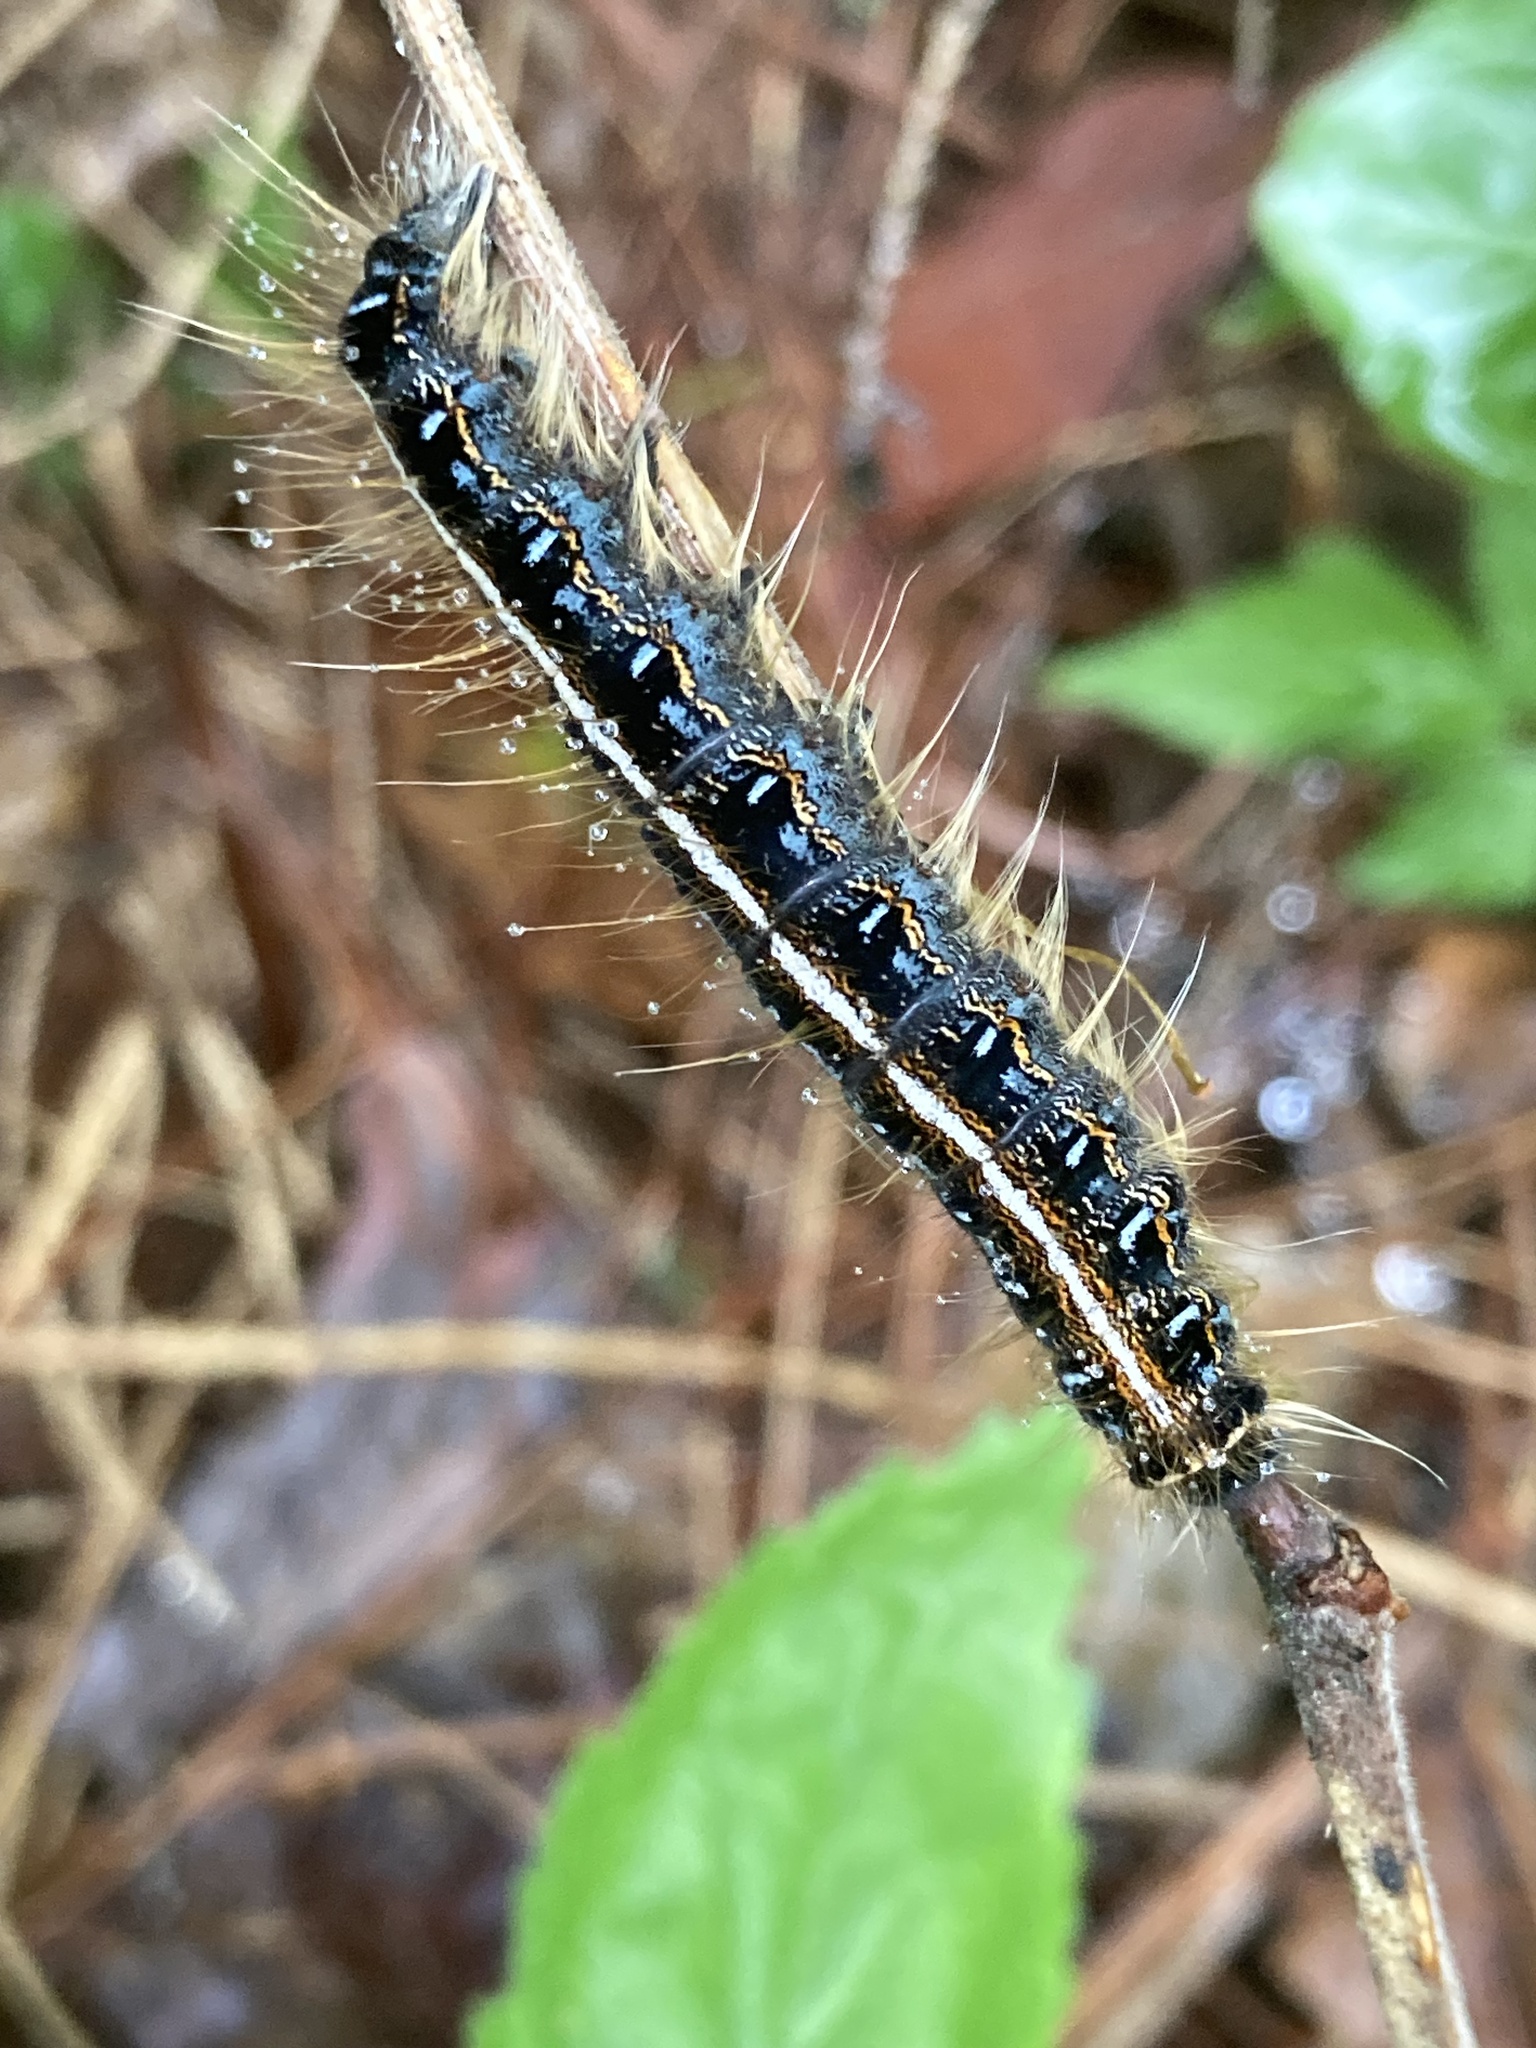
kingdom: Animalia
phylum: Arthropoda
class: Insecta
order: Lepidoptera
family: Lasiocampidae
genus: Malacosoma
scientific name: Malacosoma americana
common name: Eastern tent caterpillar moth
